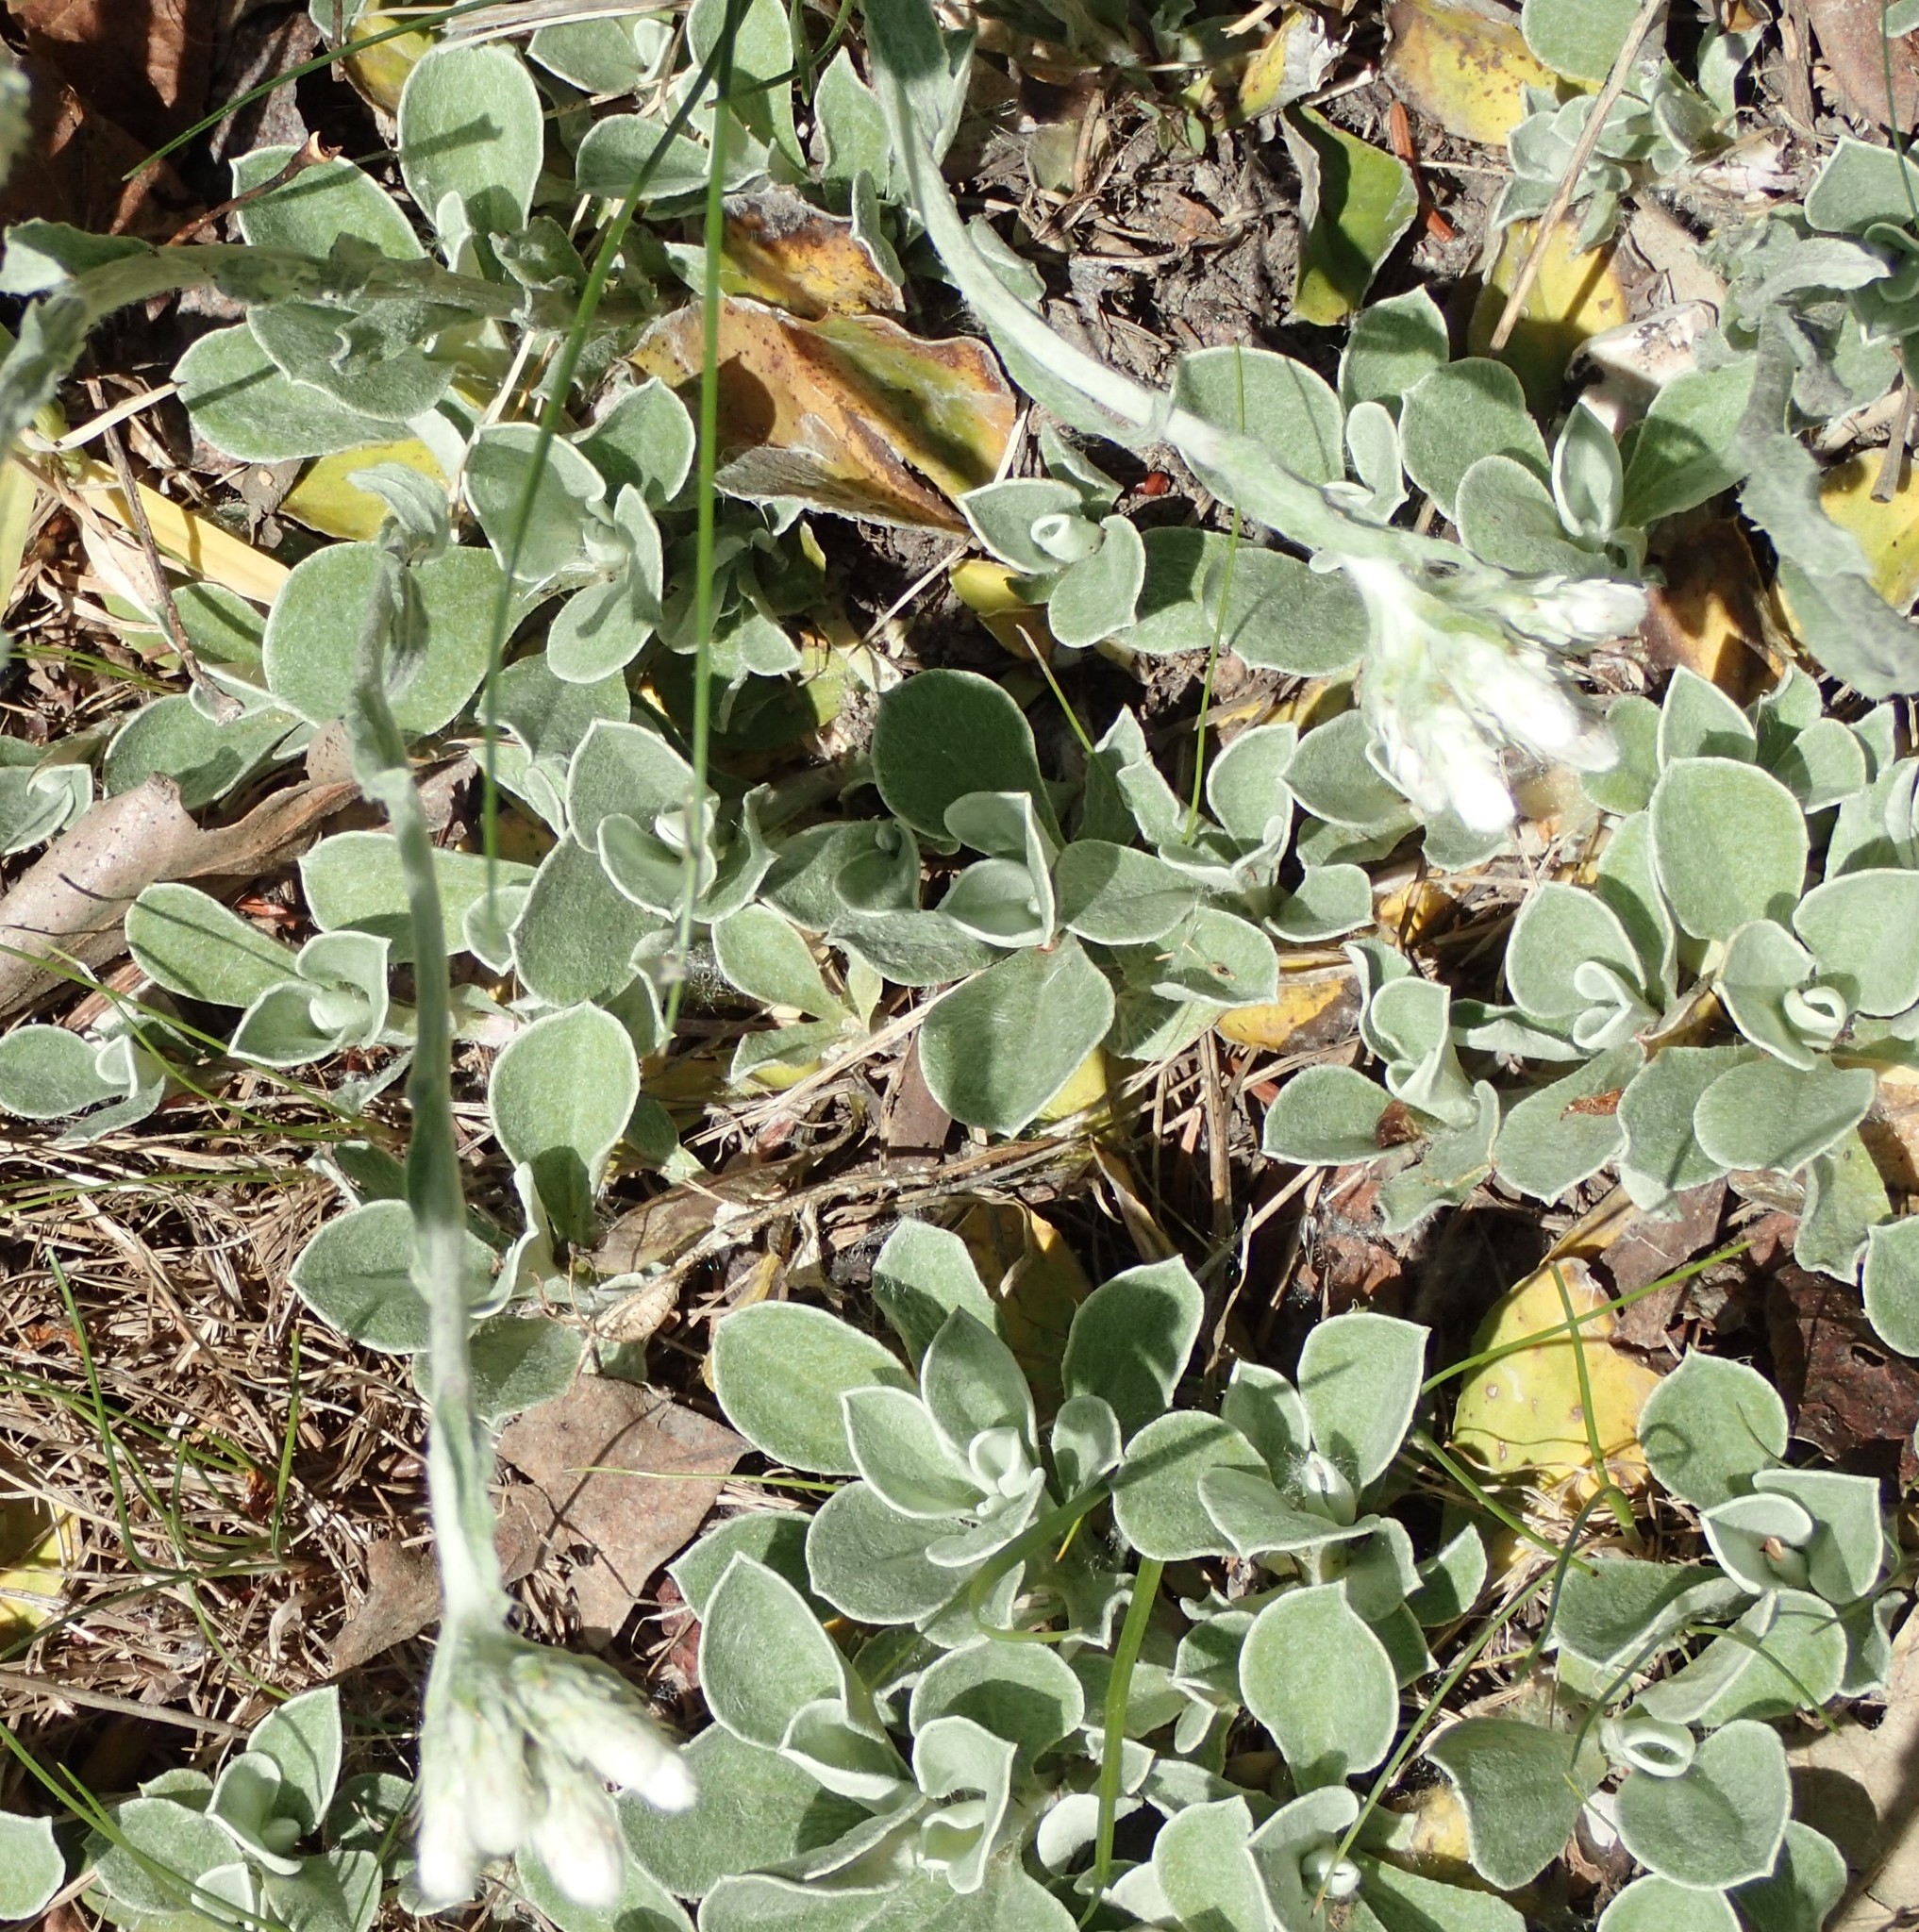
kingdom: Plantae
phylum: Tracheophyta
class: Magnoliopsida
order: Asterales
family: Asteraceae
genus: Antennaria
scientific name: Antennaria howellii
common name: Howell's pussytoes
